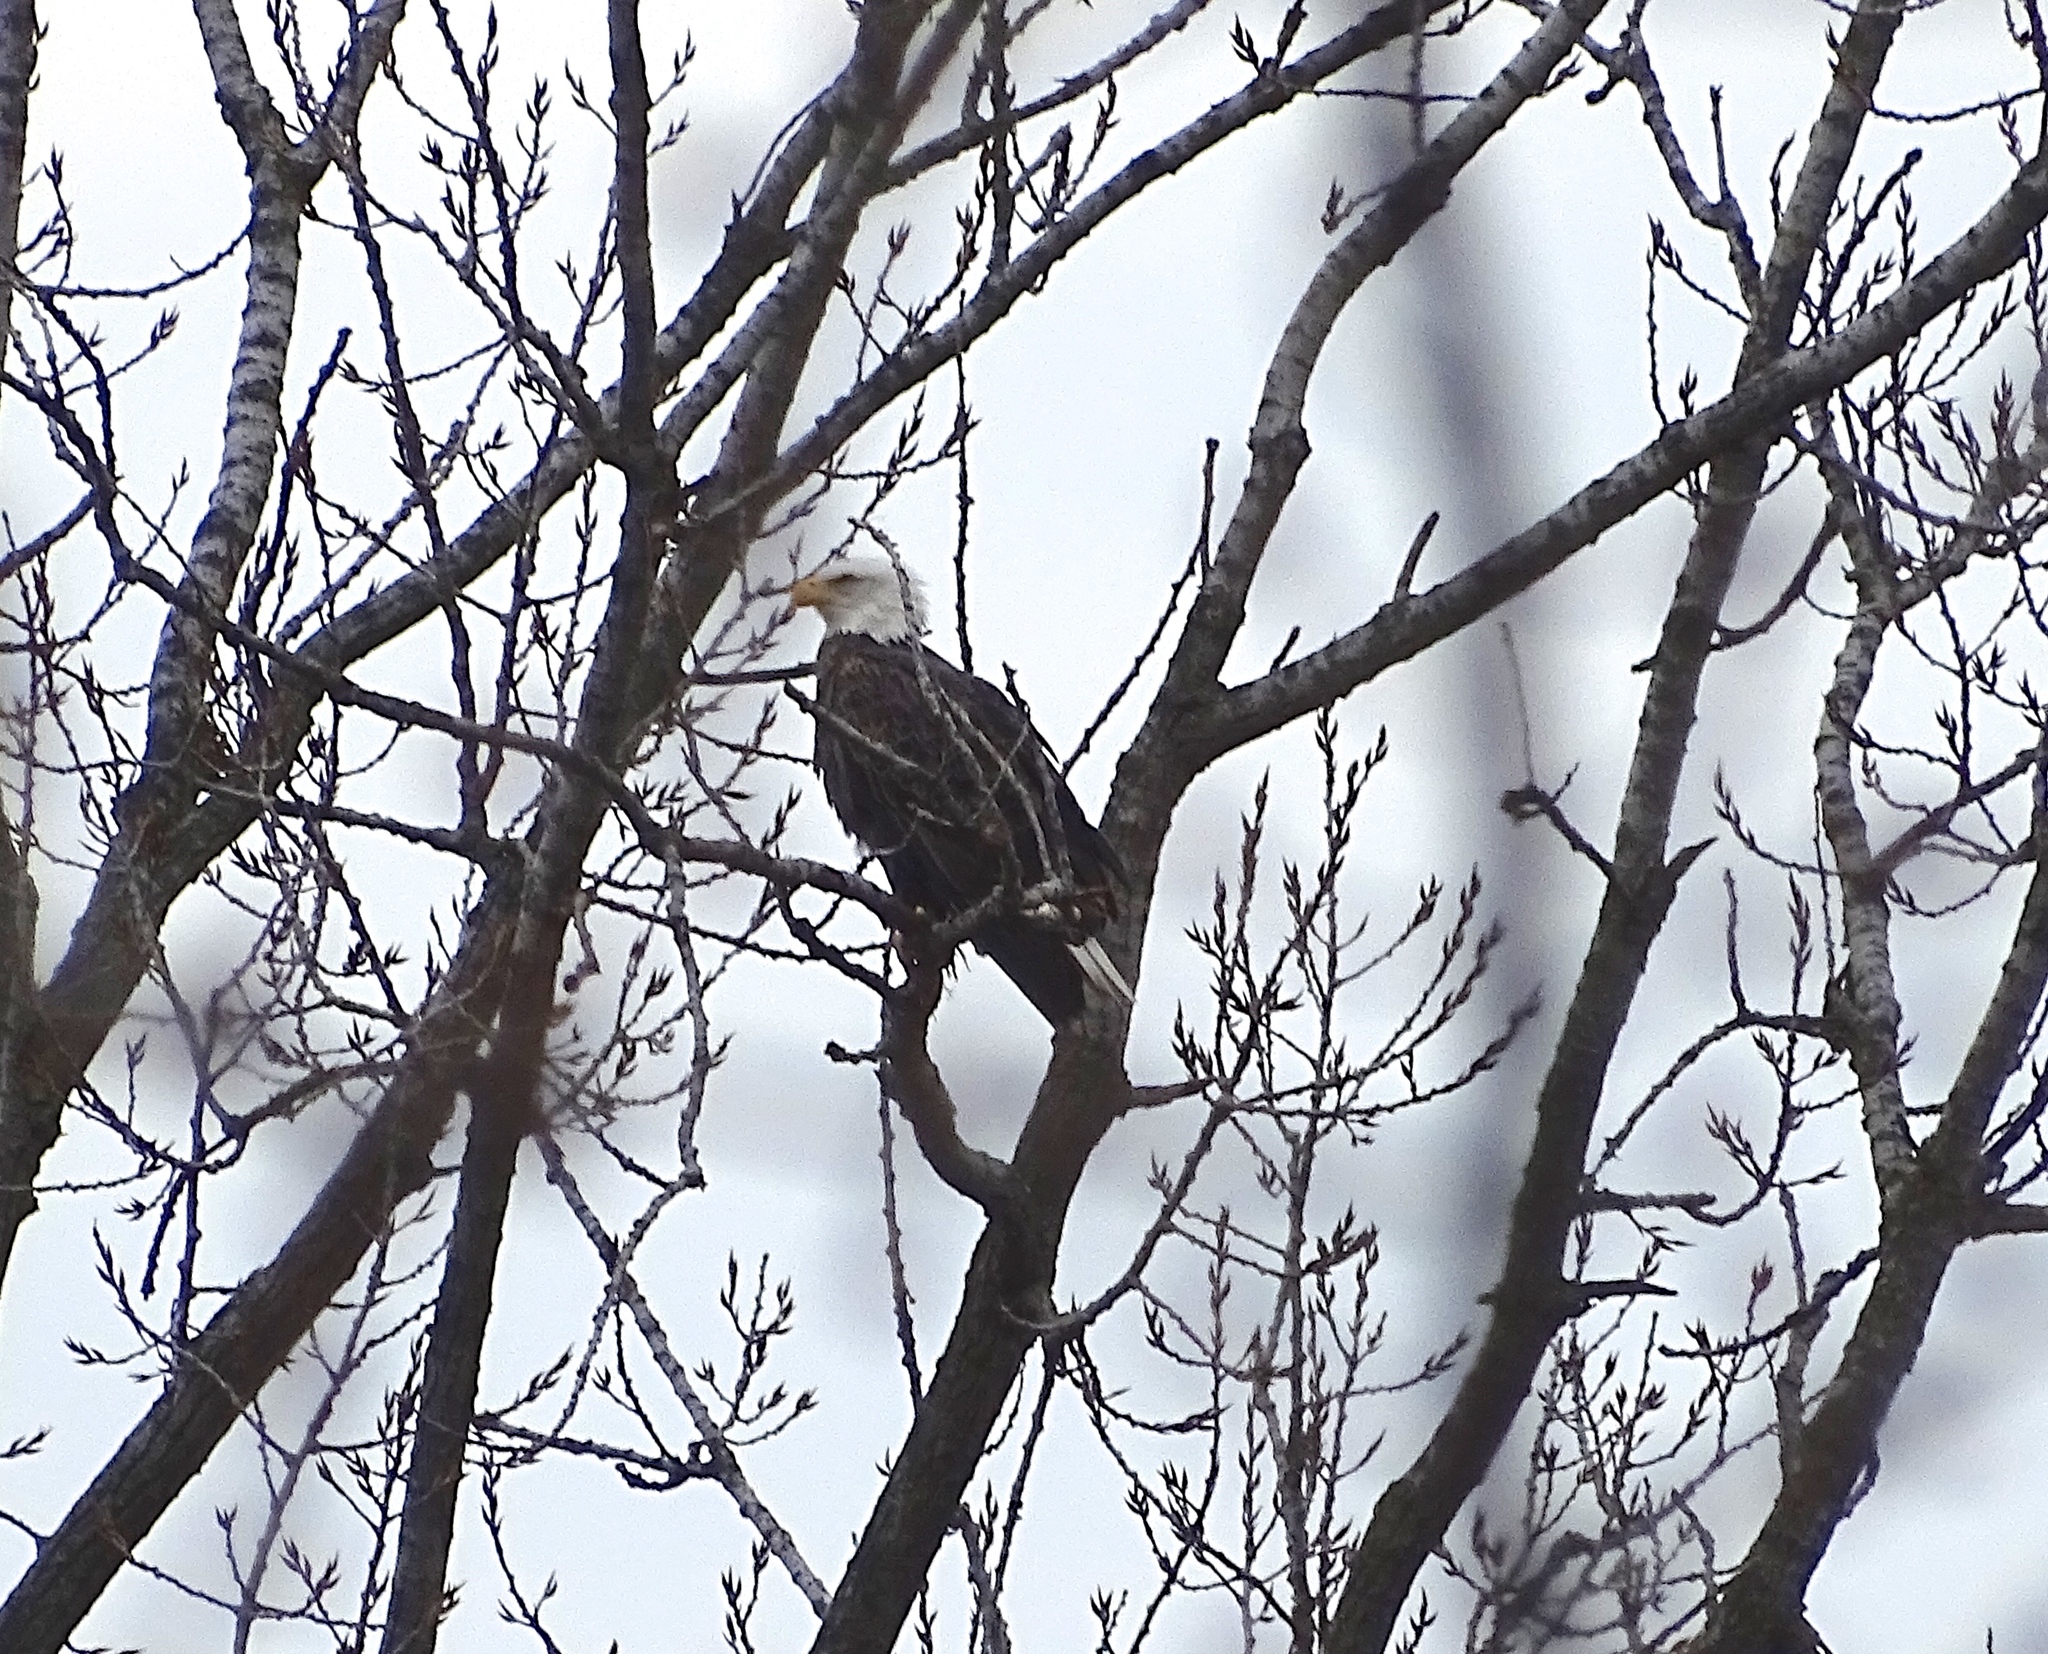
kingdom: Animalia
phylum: Chordata
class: Aves
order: Accipitriformes
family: Accipitridae
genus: Haliaeetus
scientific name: Haliaeetus leucocephalus
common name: Bald eagle
